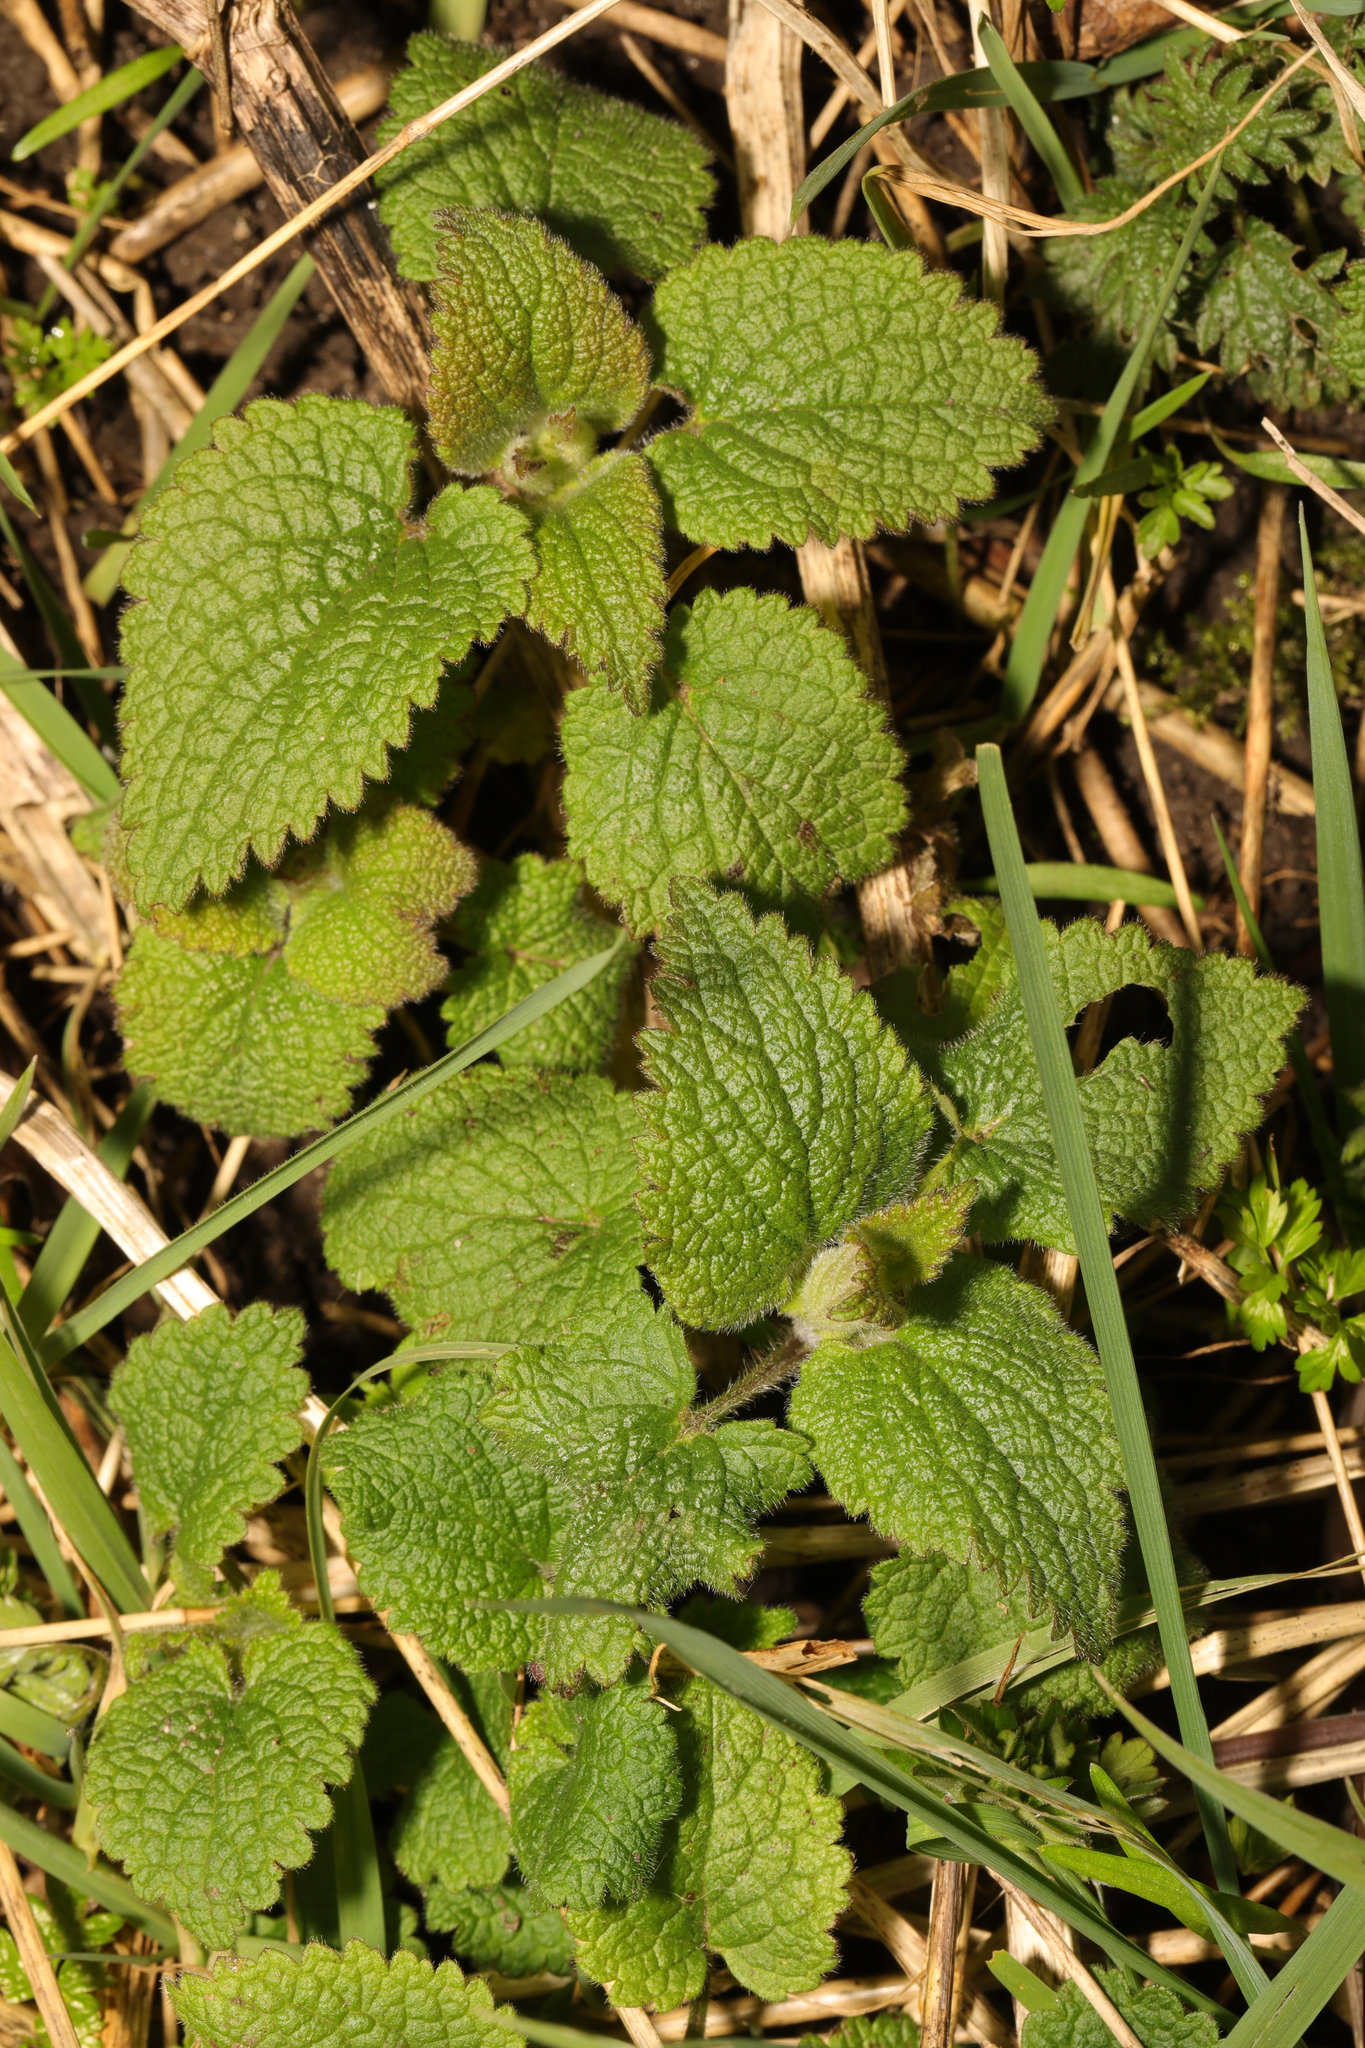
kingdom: Plantae
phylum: Tracheophyta
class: Magnoliopsida
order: Lamiales
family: Lamiaceae
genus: Lamium
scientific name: Lamium album
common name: White dead-nettle
